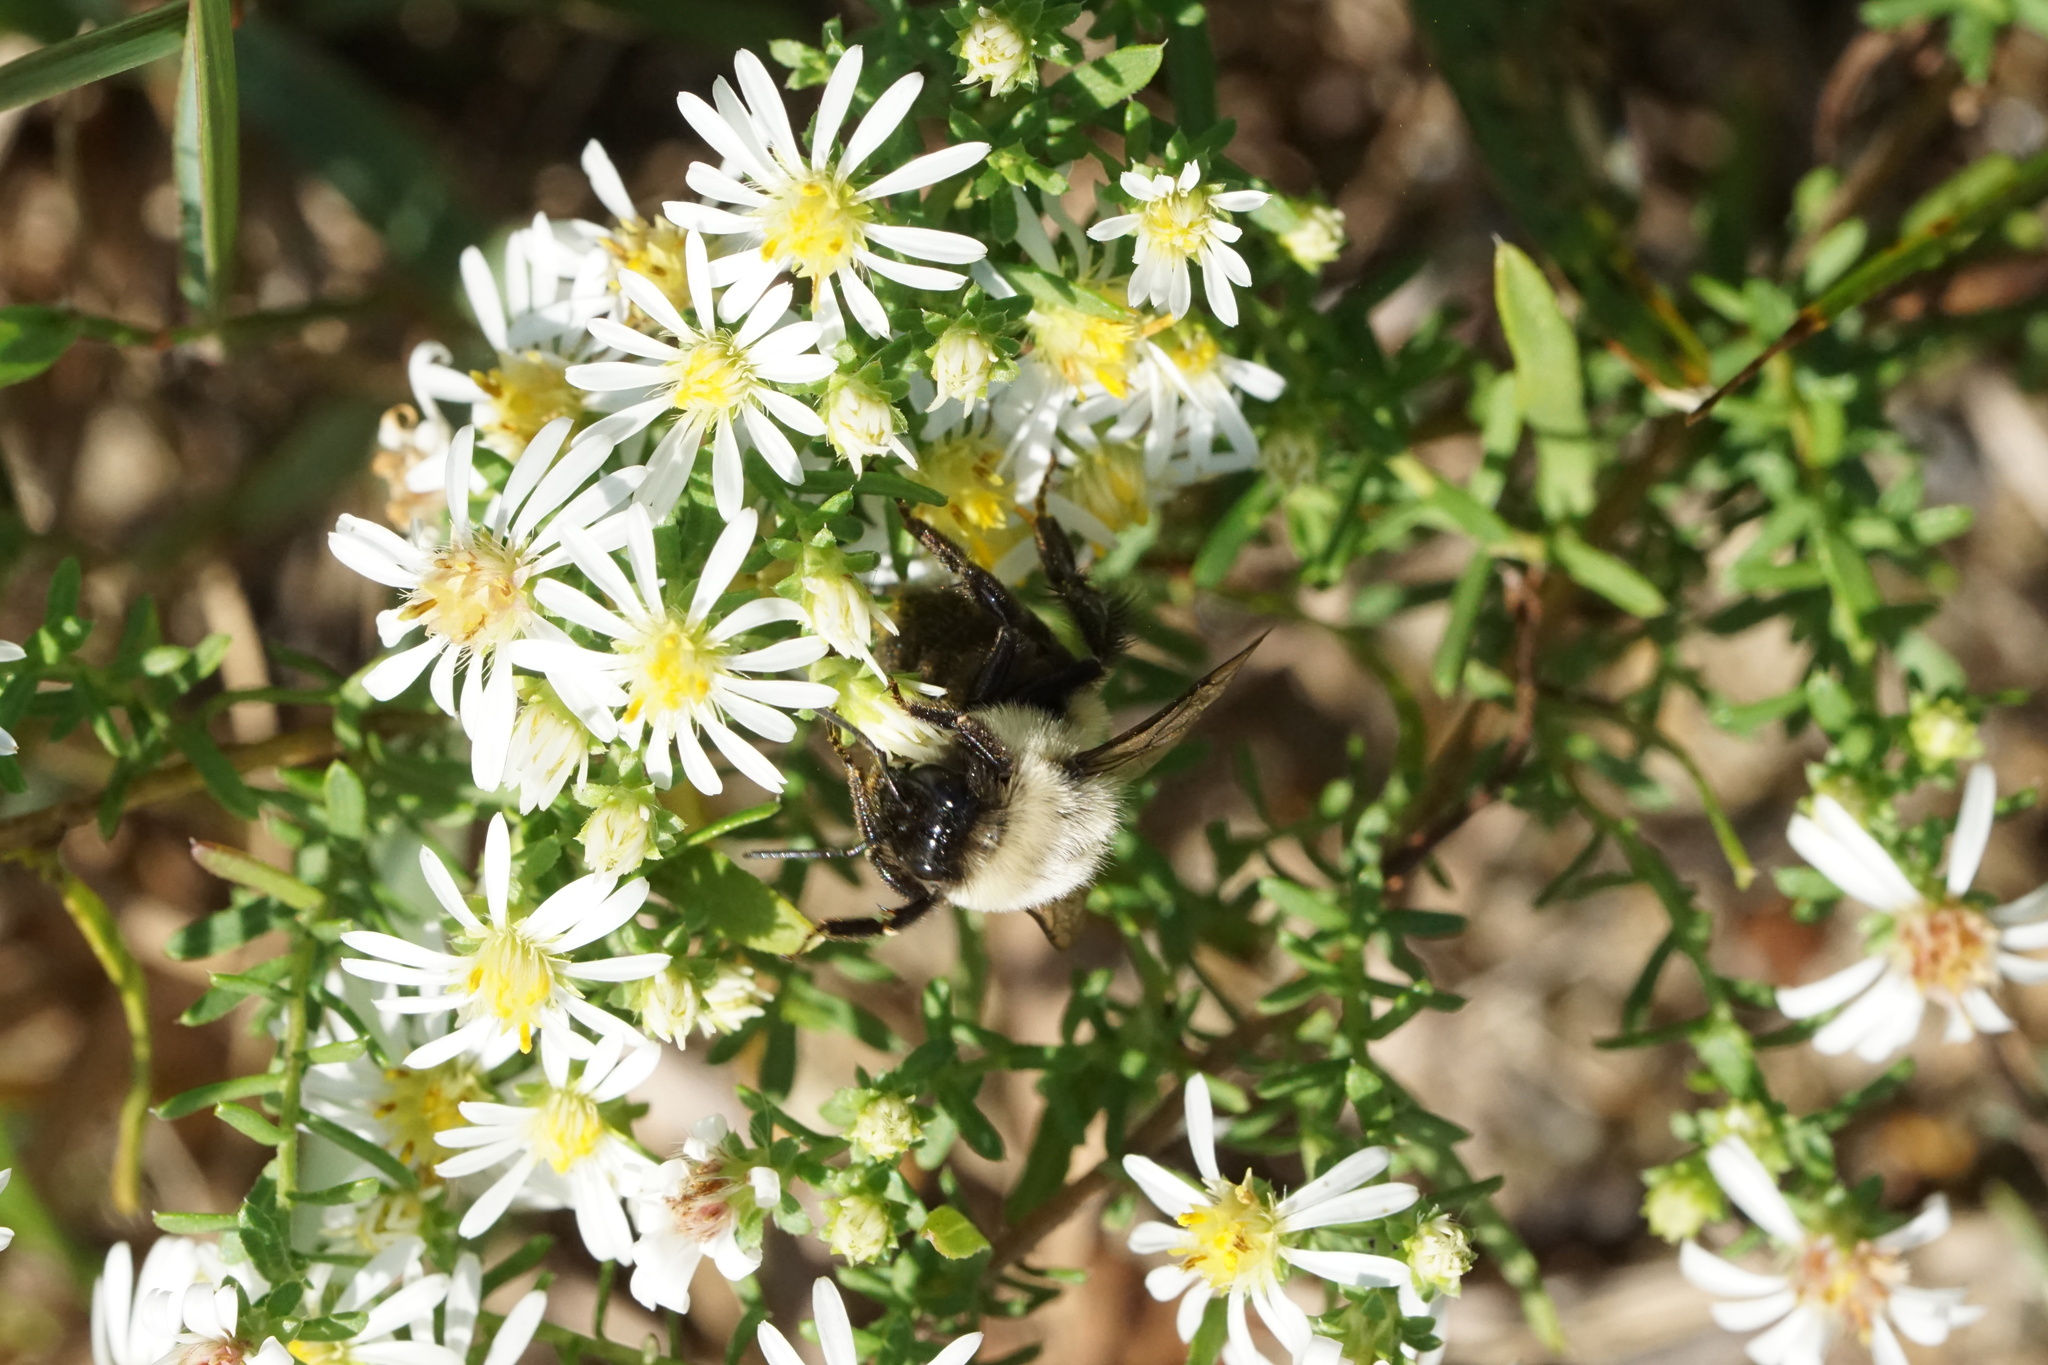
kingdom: Animalia
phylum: Arthropoda
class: Insecta
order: Hymenoptera
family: Apidae
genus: Bombus
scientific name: Bombus impatiens
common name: Common eastern bumble bee
